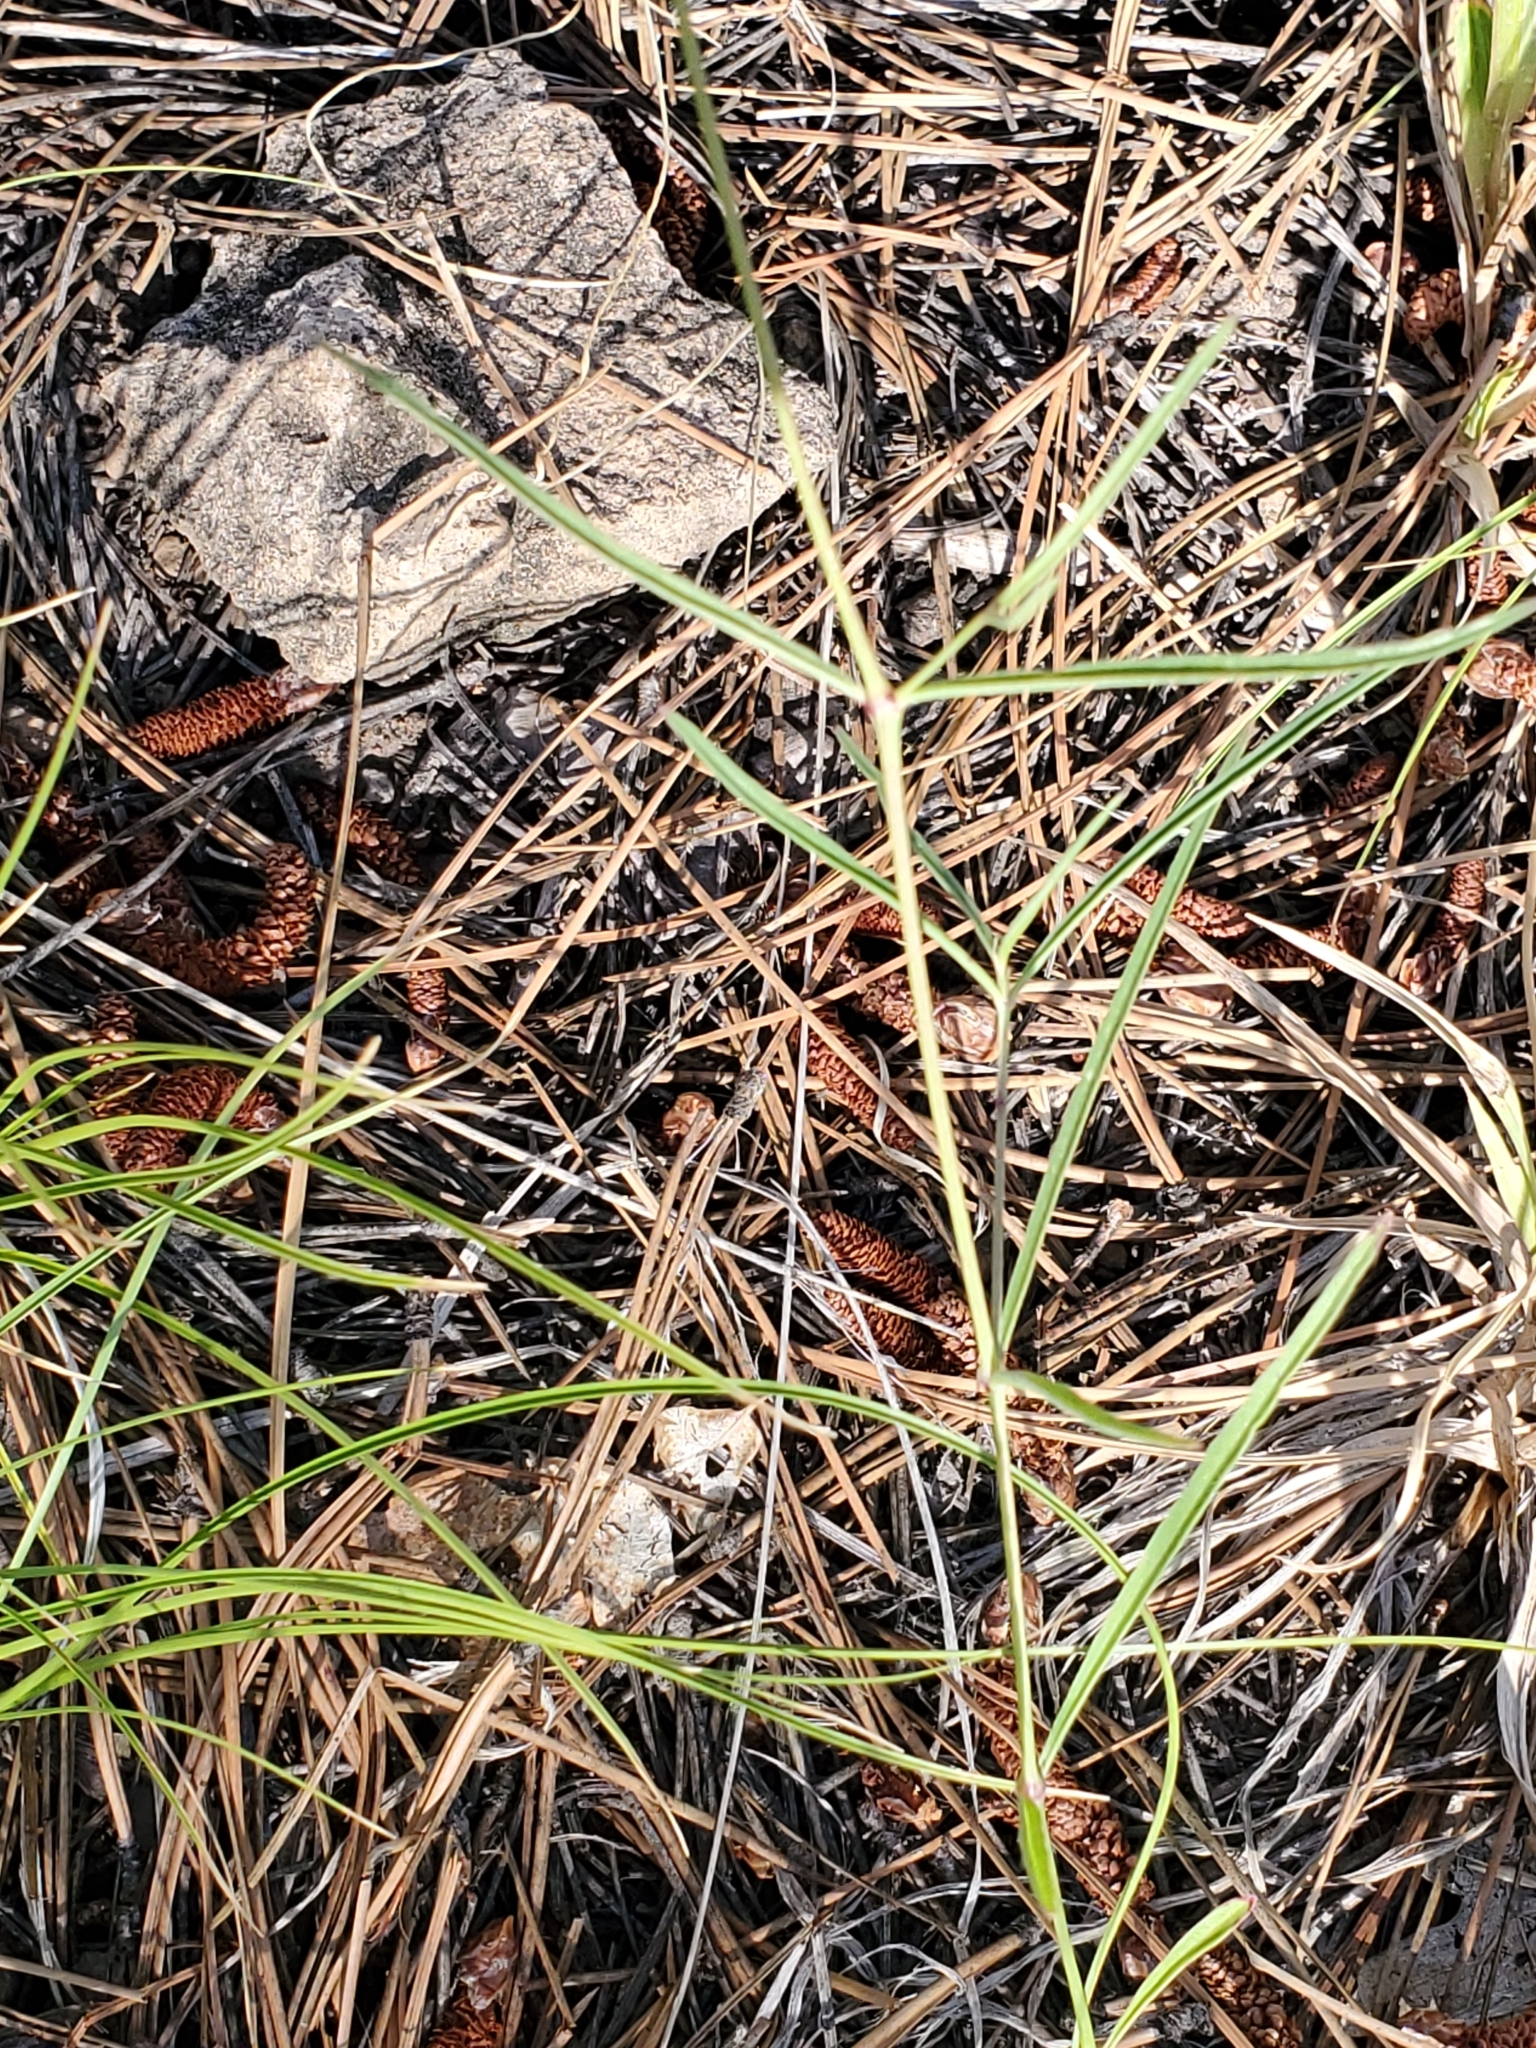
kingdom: Plantae
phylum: Tracheophyta
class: Magnoliopsida
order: Caryophyllales
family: Nyctaginaceae
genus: Mirabilis
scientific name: Mirabilis linearis
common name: Linear-leaved four-o'clock
